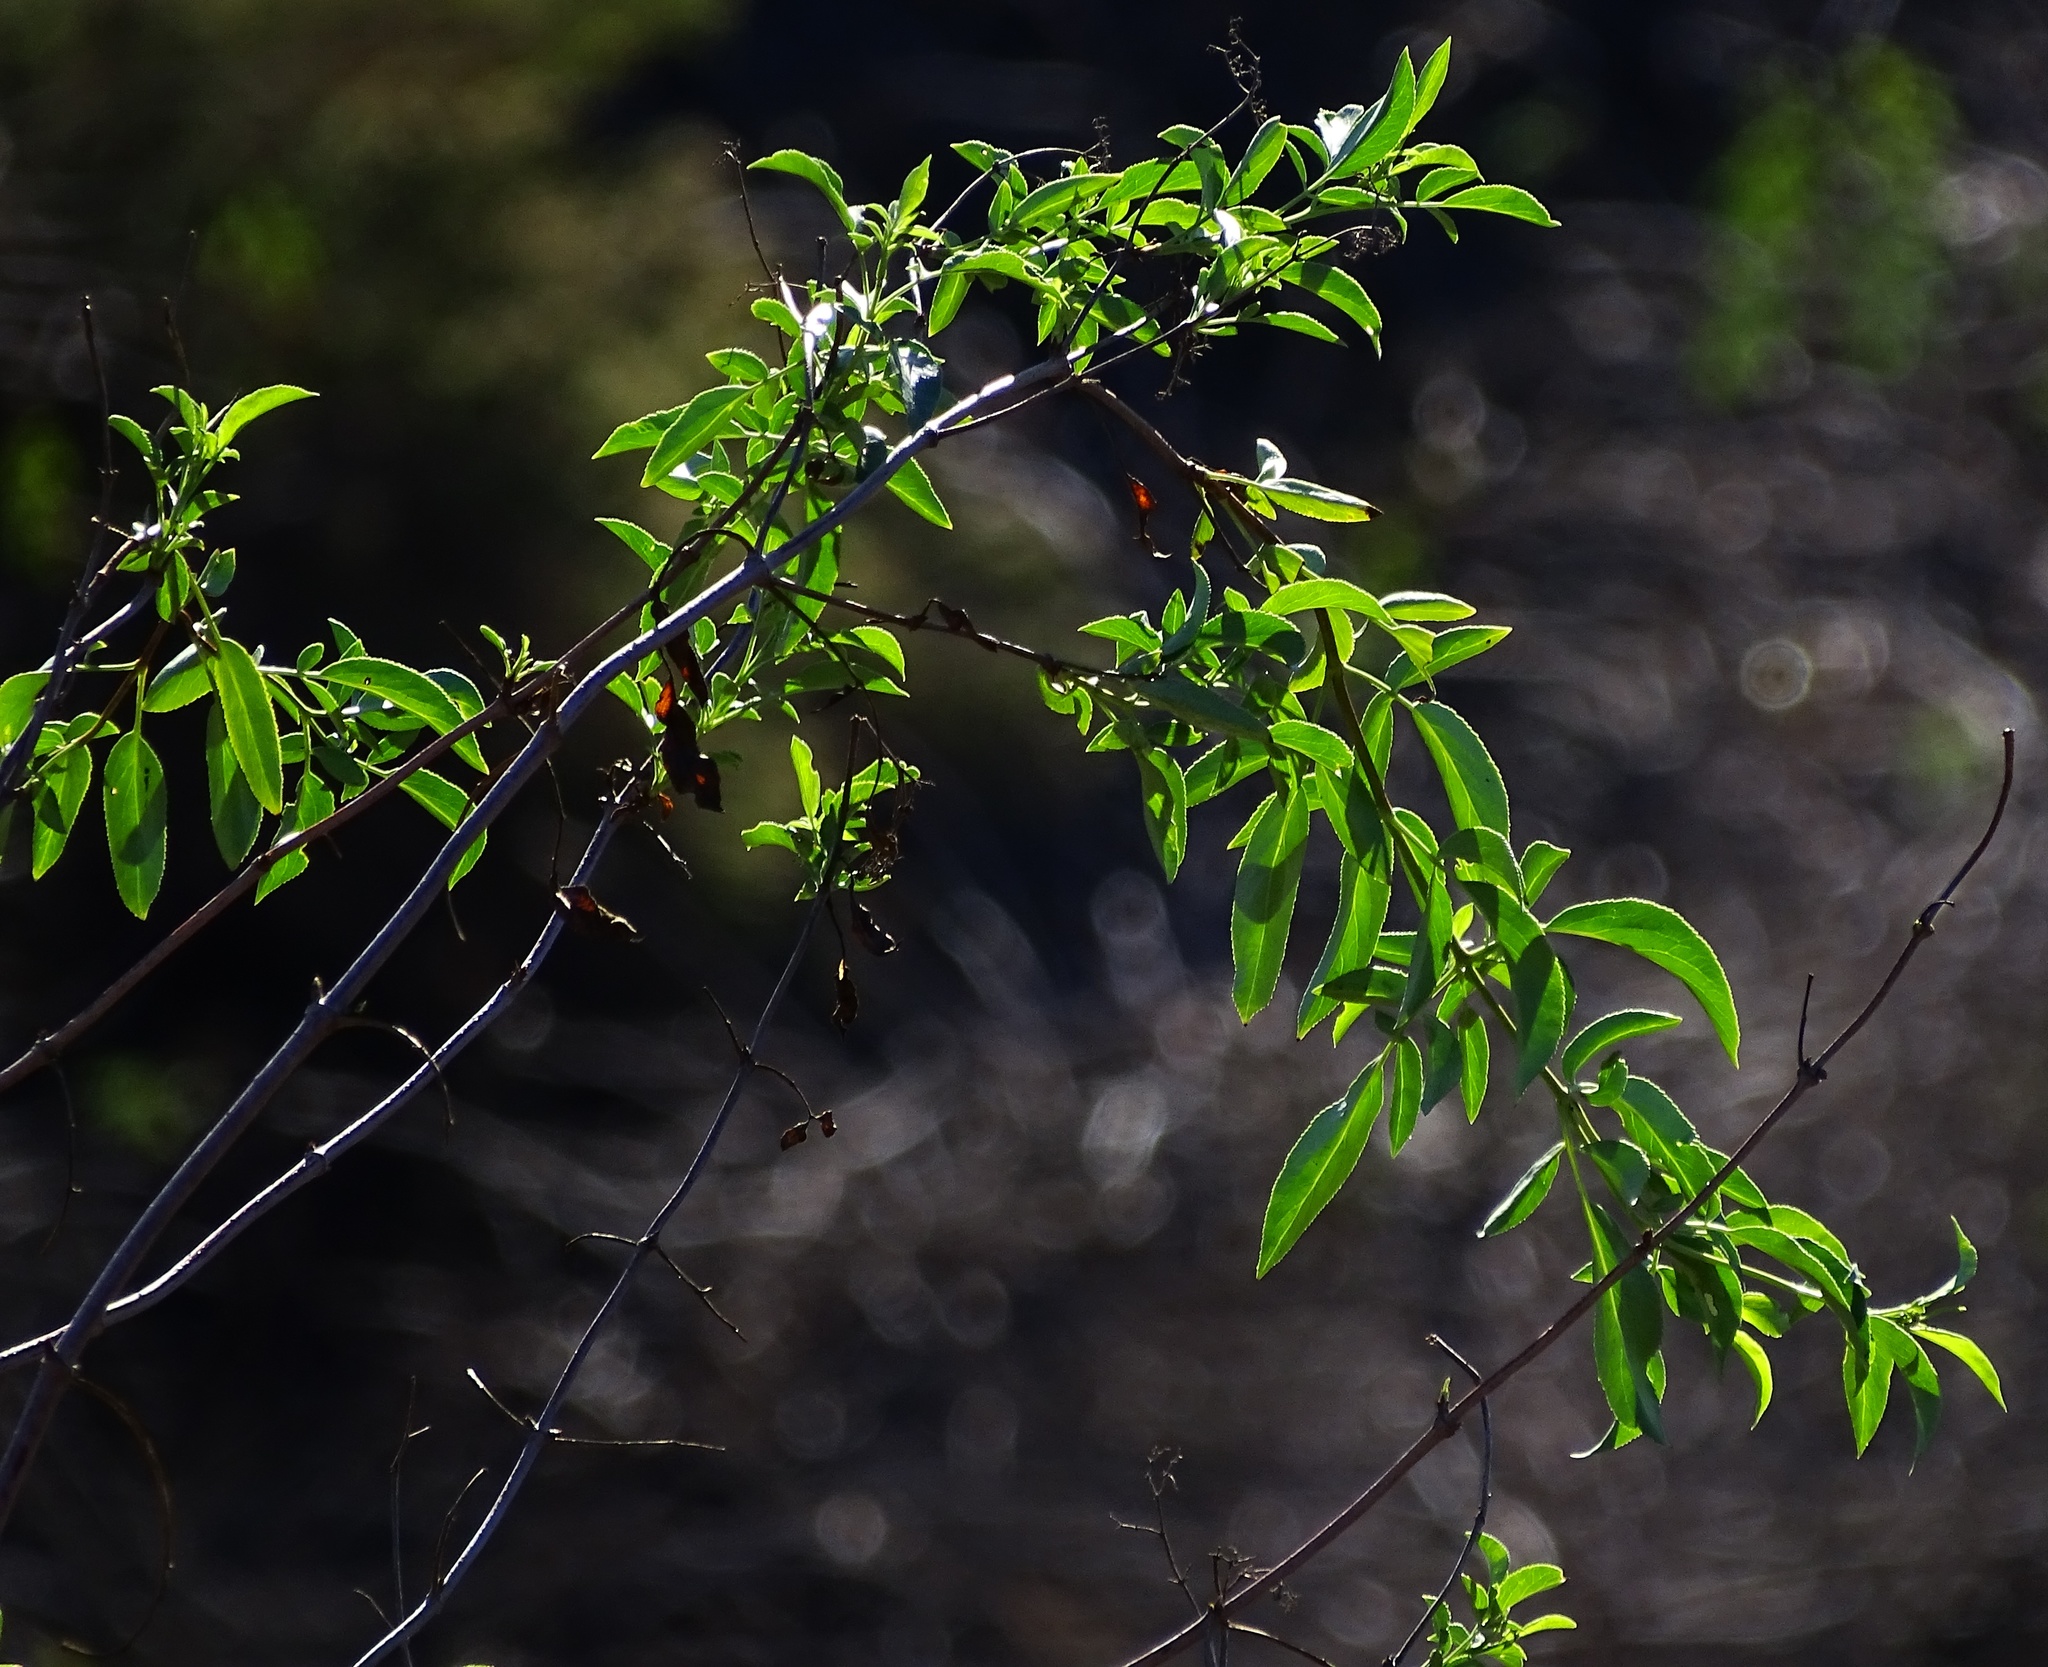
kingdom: Plantae
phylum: Tracheophyta
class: Magnoliopsida
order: Dipsacales
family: Viburnaceae
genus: Sambucus
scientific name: Sambucus cerulea
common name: Blue elder
